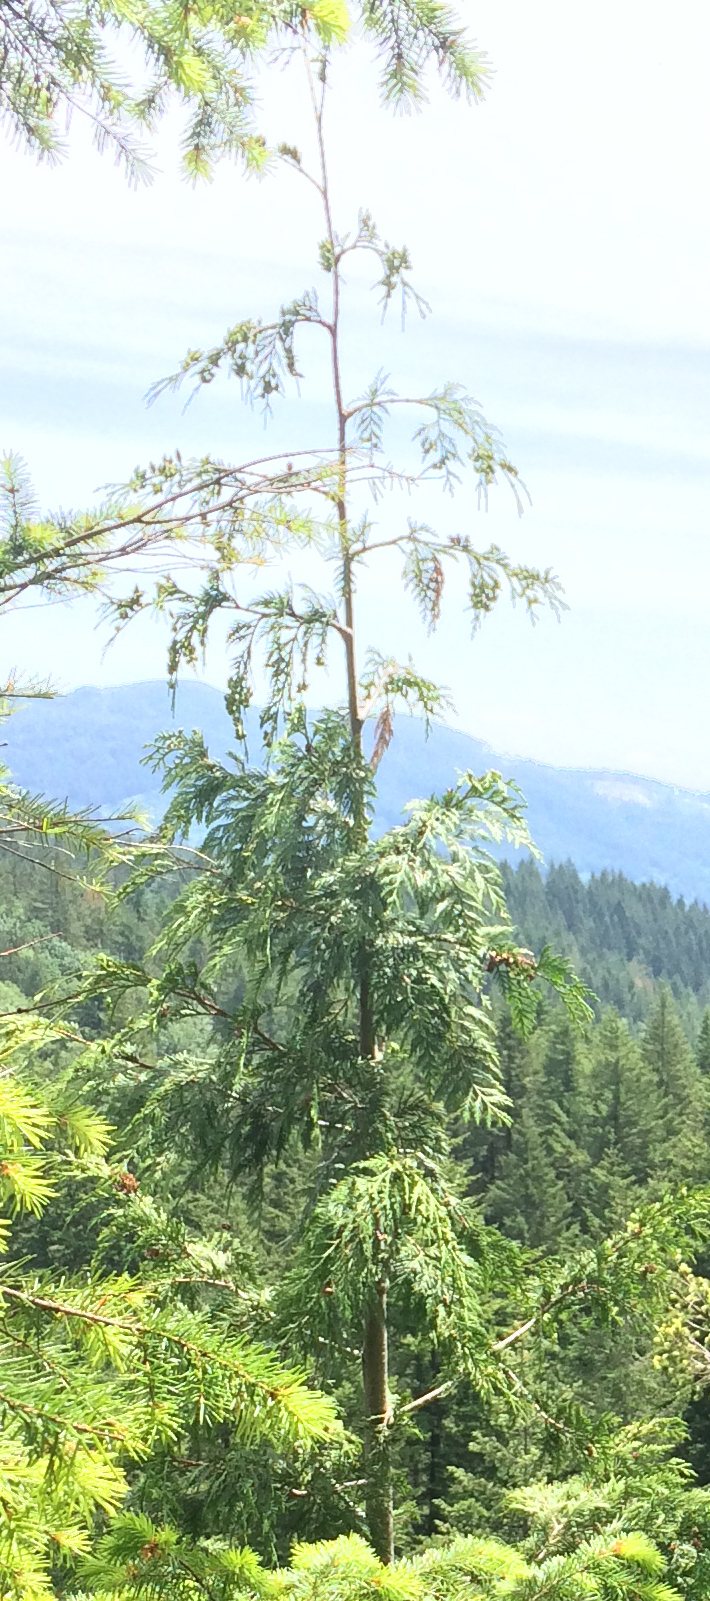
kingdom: Plantae
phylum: Tracheophyta
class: Pinopsida
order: Pinales
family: Cupressaceae
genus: Thuja
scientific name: Thuja plicata
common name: Western red-cedar
